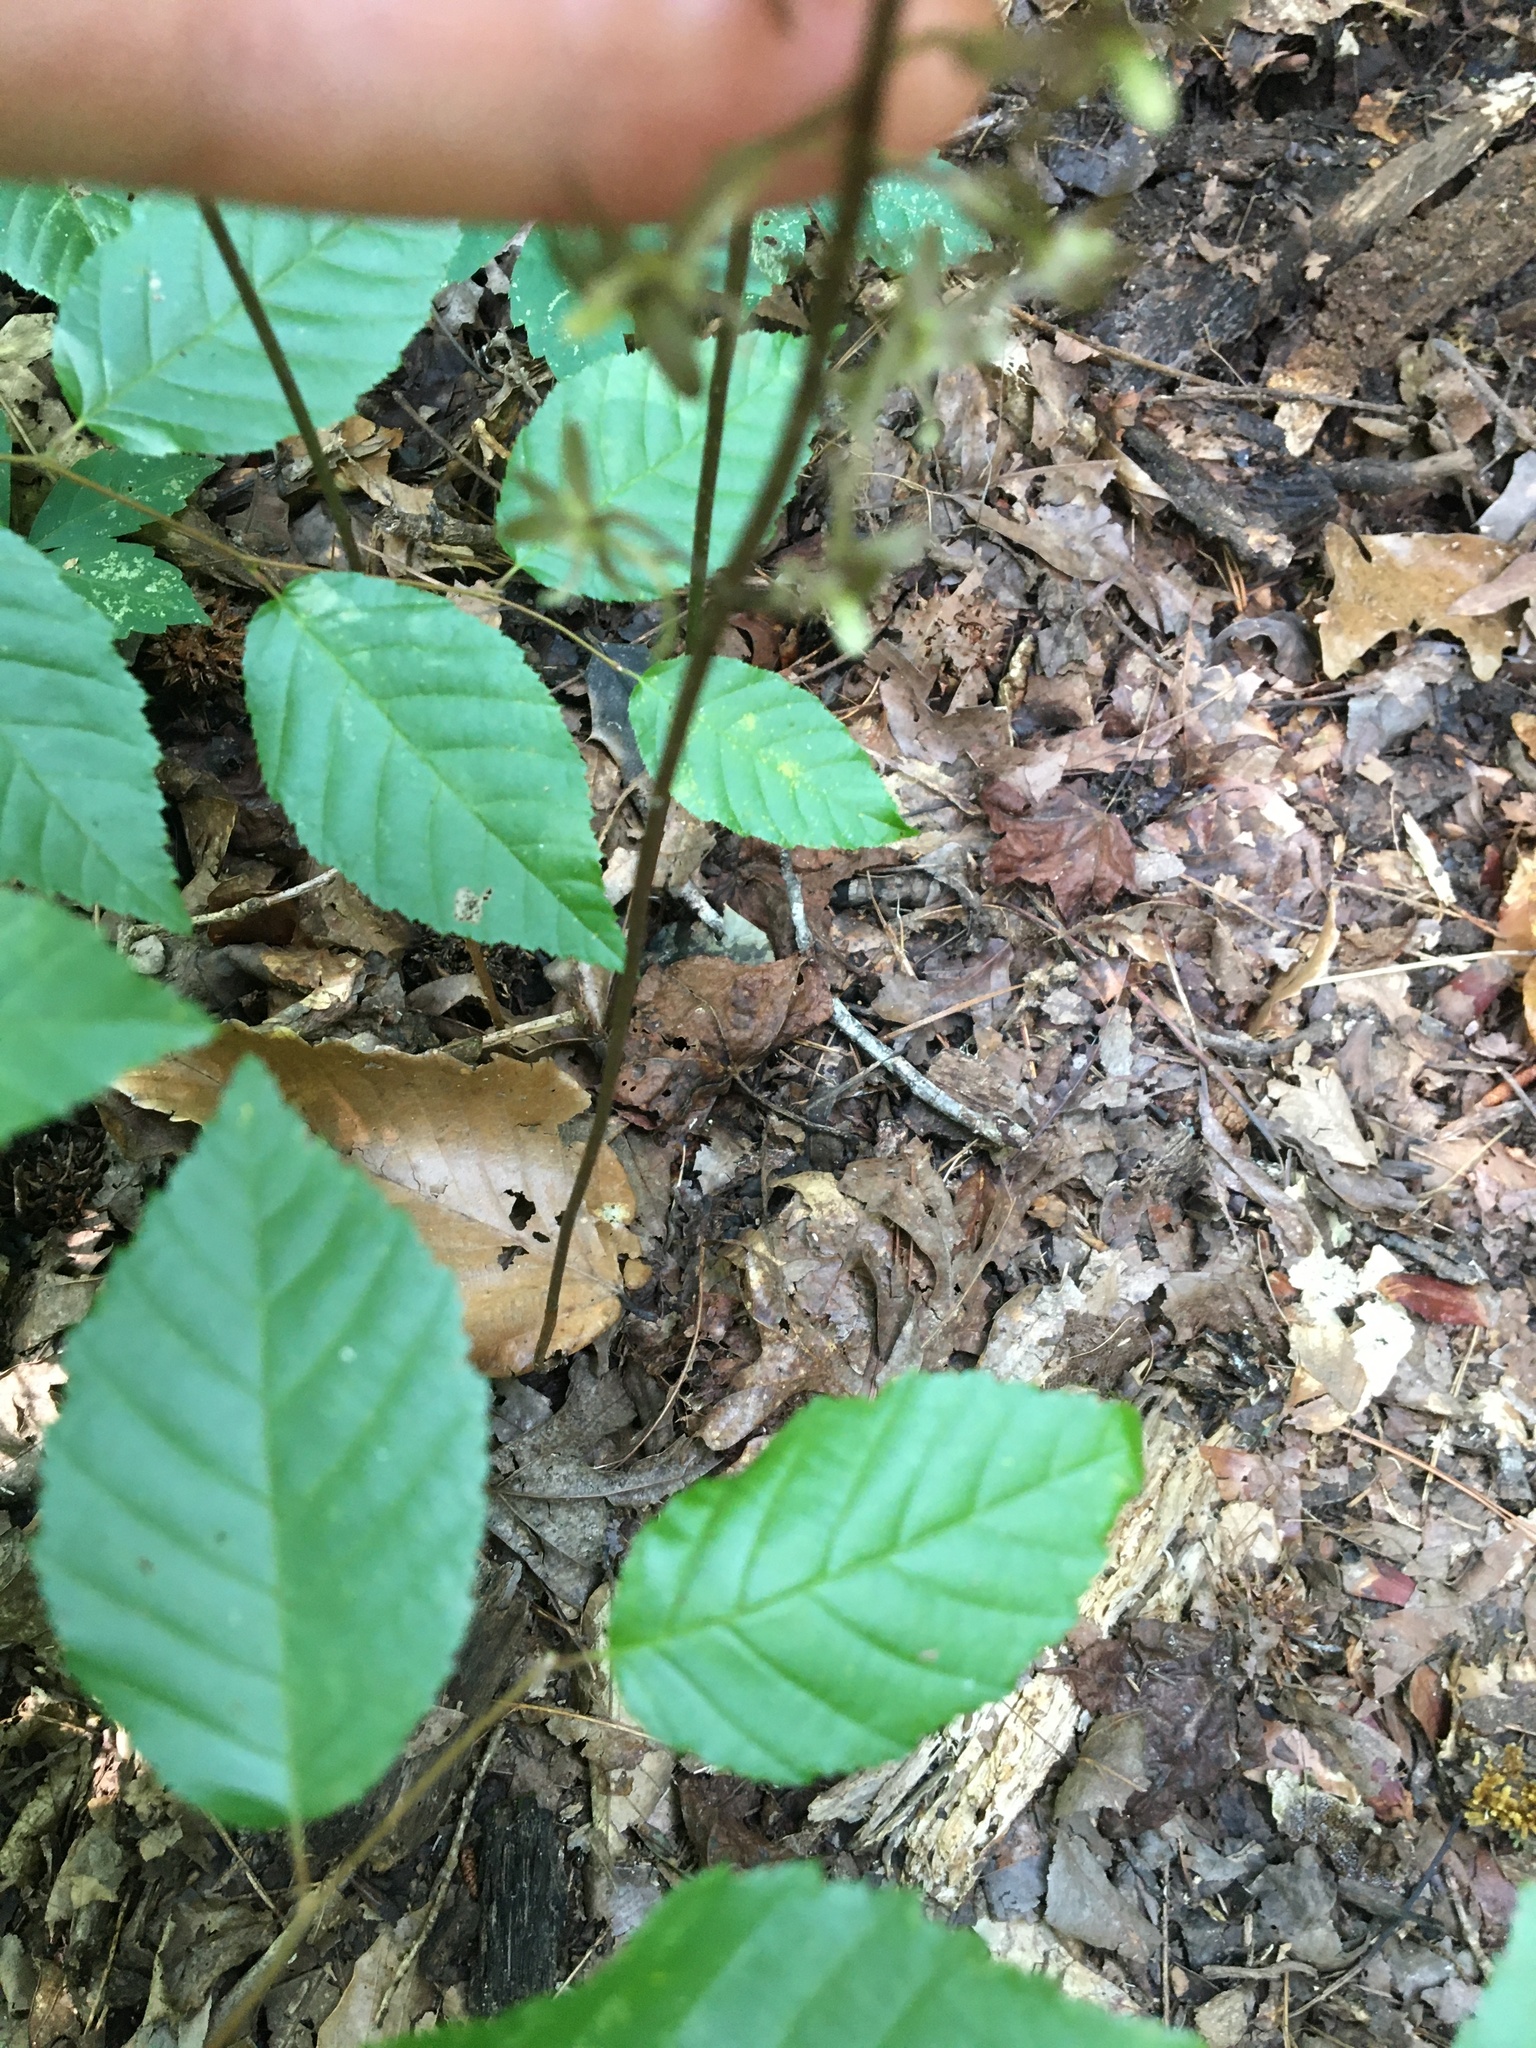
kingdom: Plantae
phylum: Tracheophyta
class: Liliopsida
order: Asparagales
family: Orchidaceae
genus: Tipularia
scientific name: Tipularia discolor
